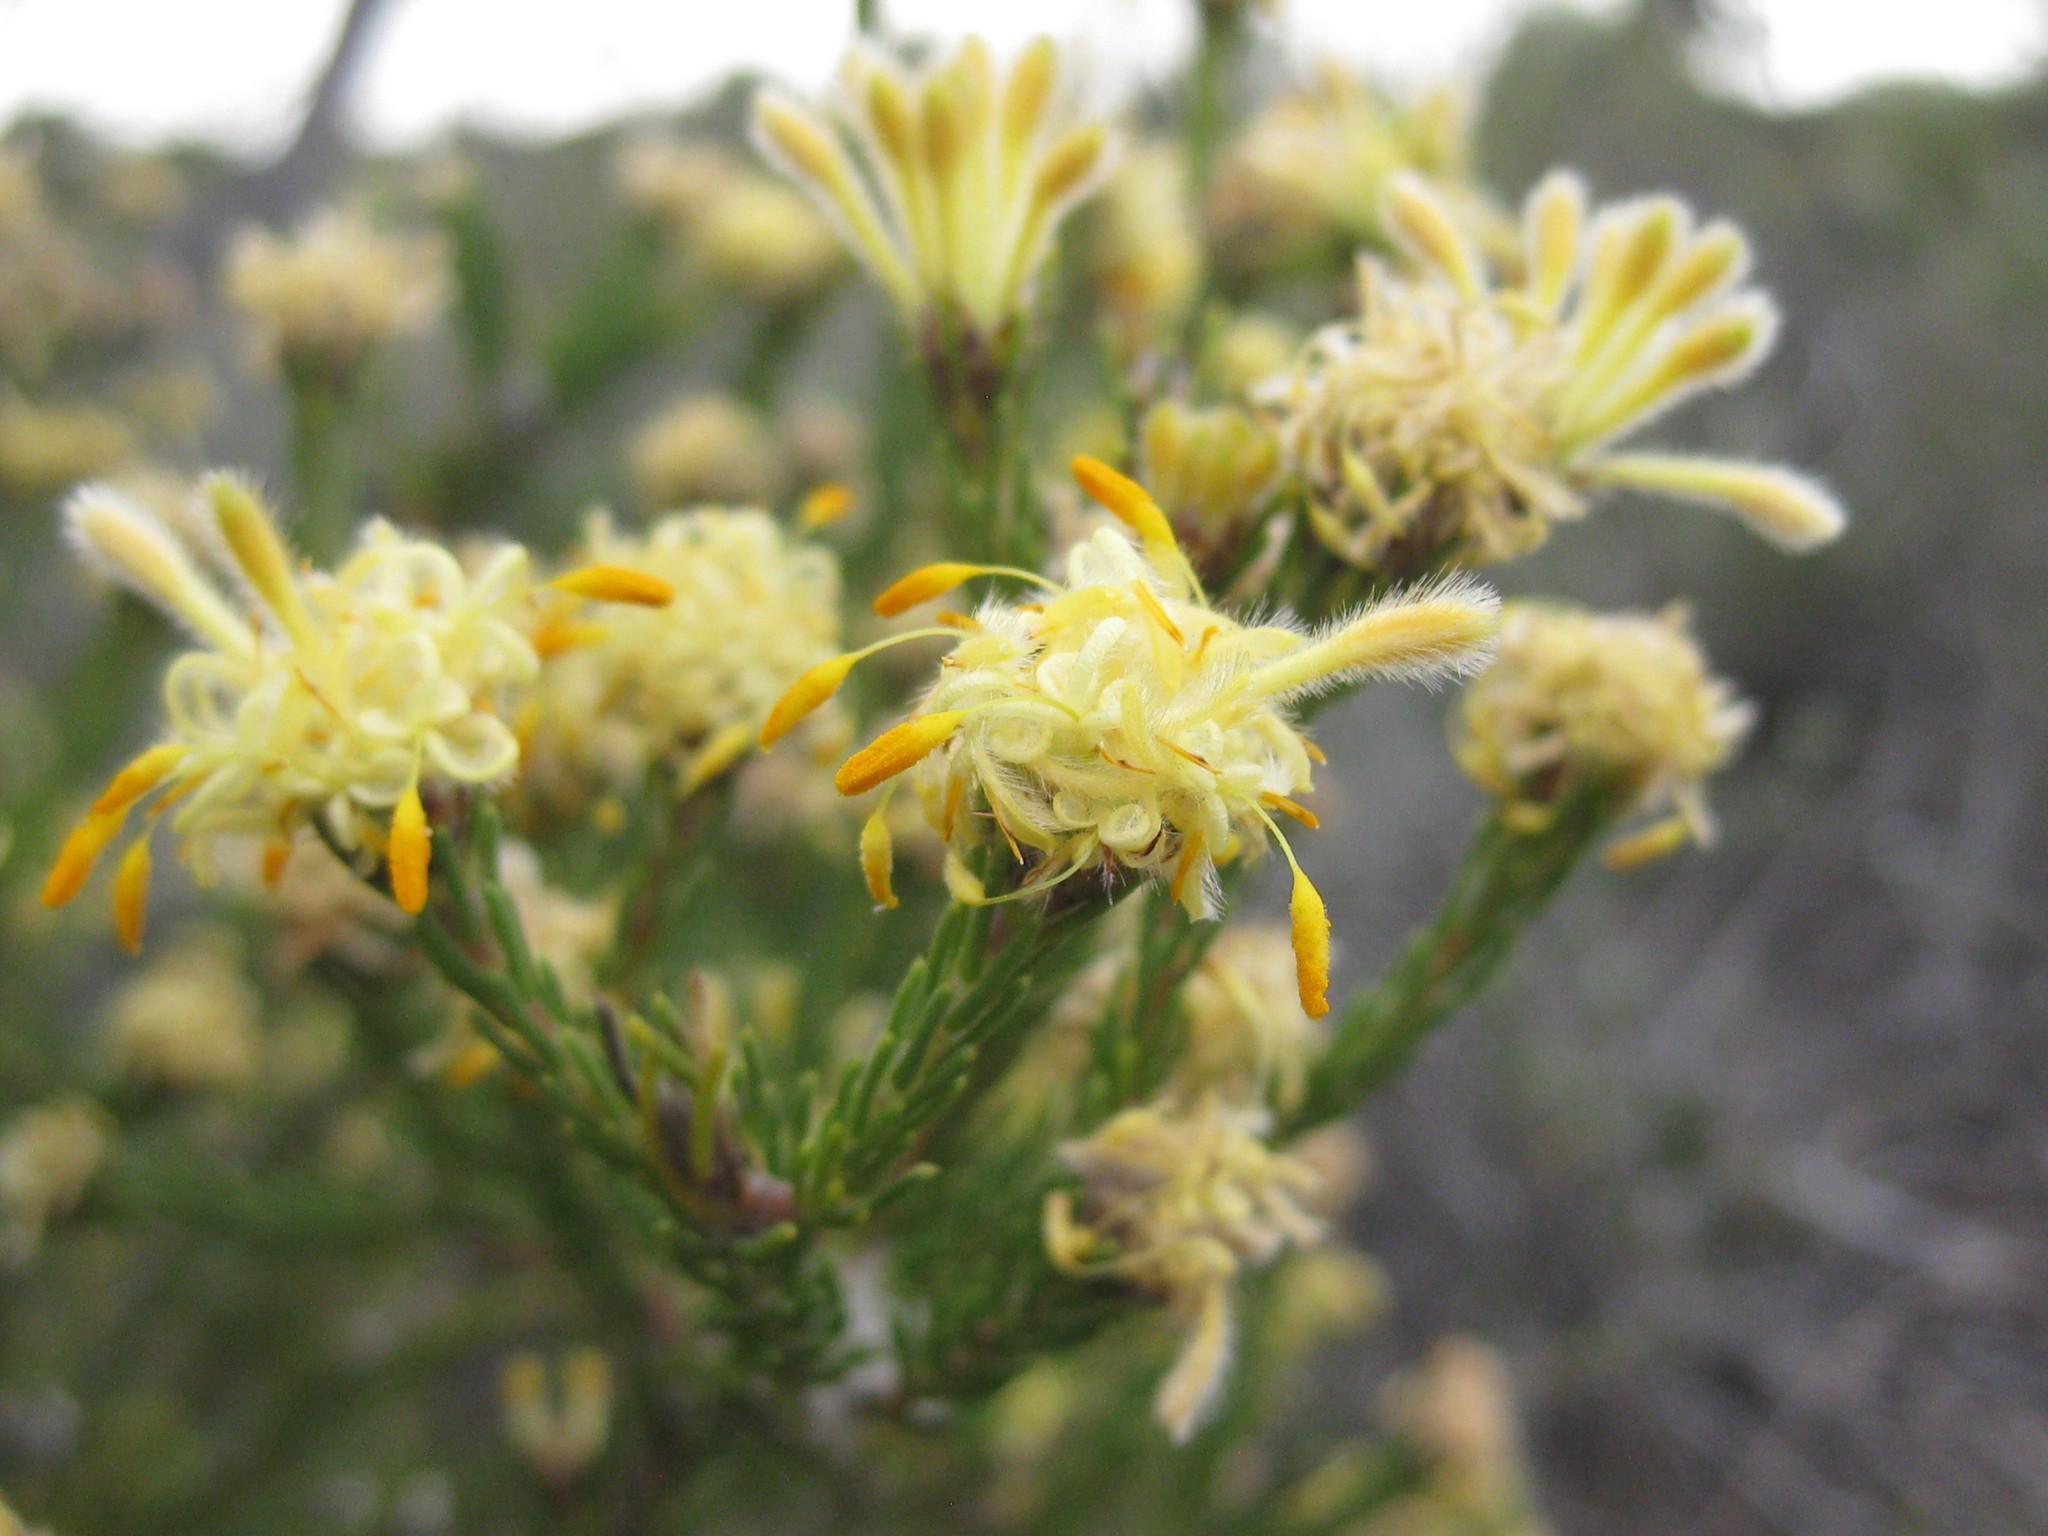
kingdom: Plantae
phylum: Tracheophyta
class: Magnoliopsida
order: Proteales
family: Proteaceae
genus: Petrophile
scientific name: Petrophile scabriuscula
